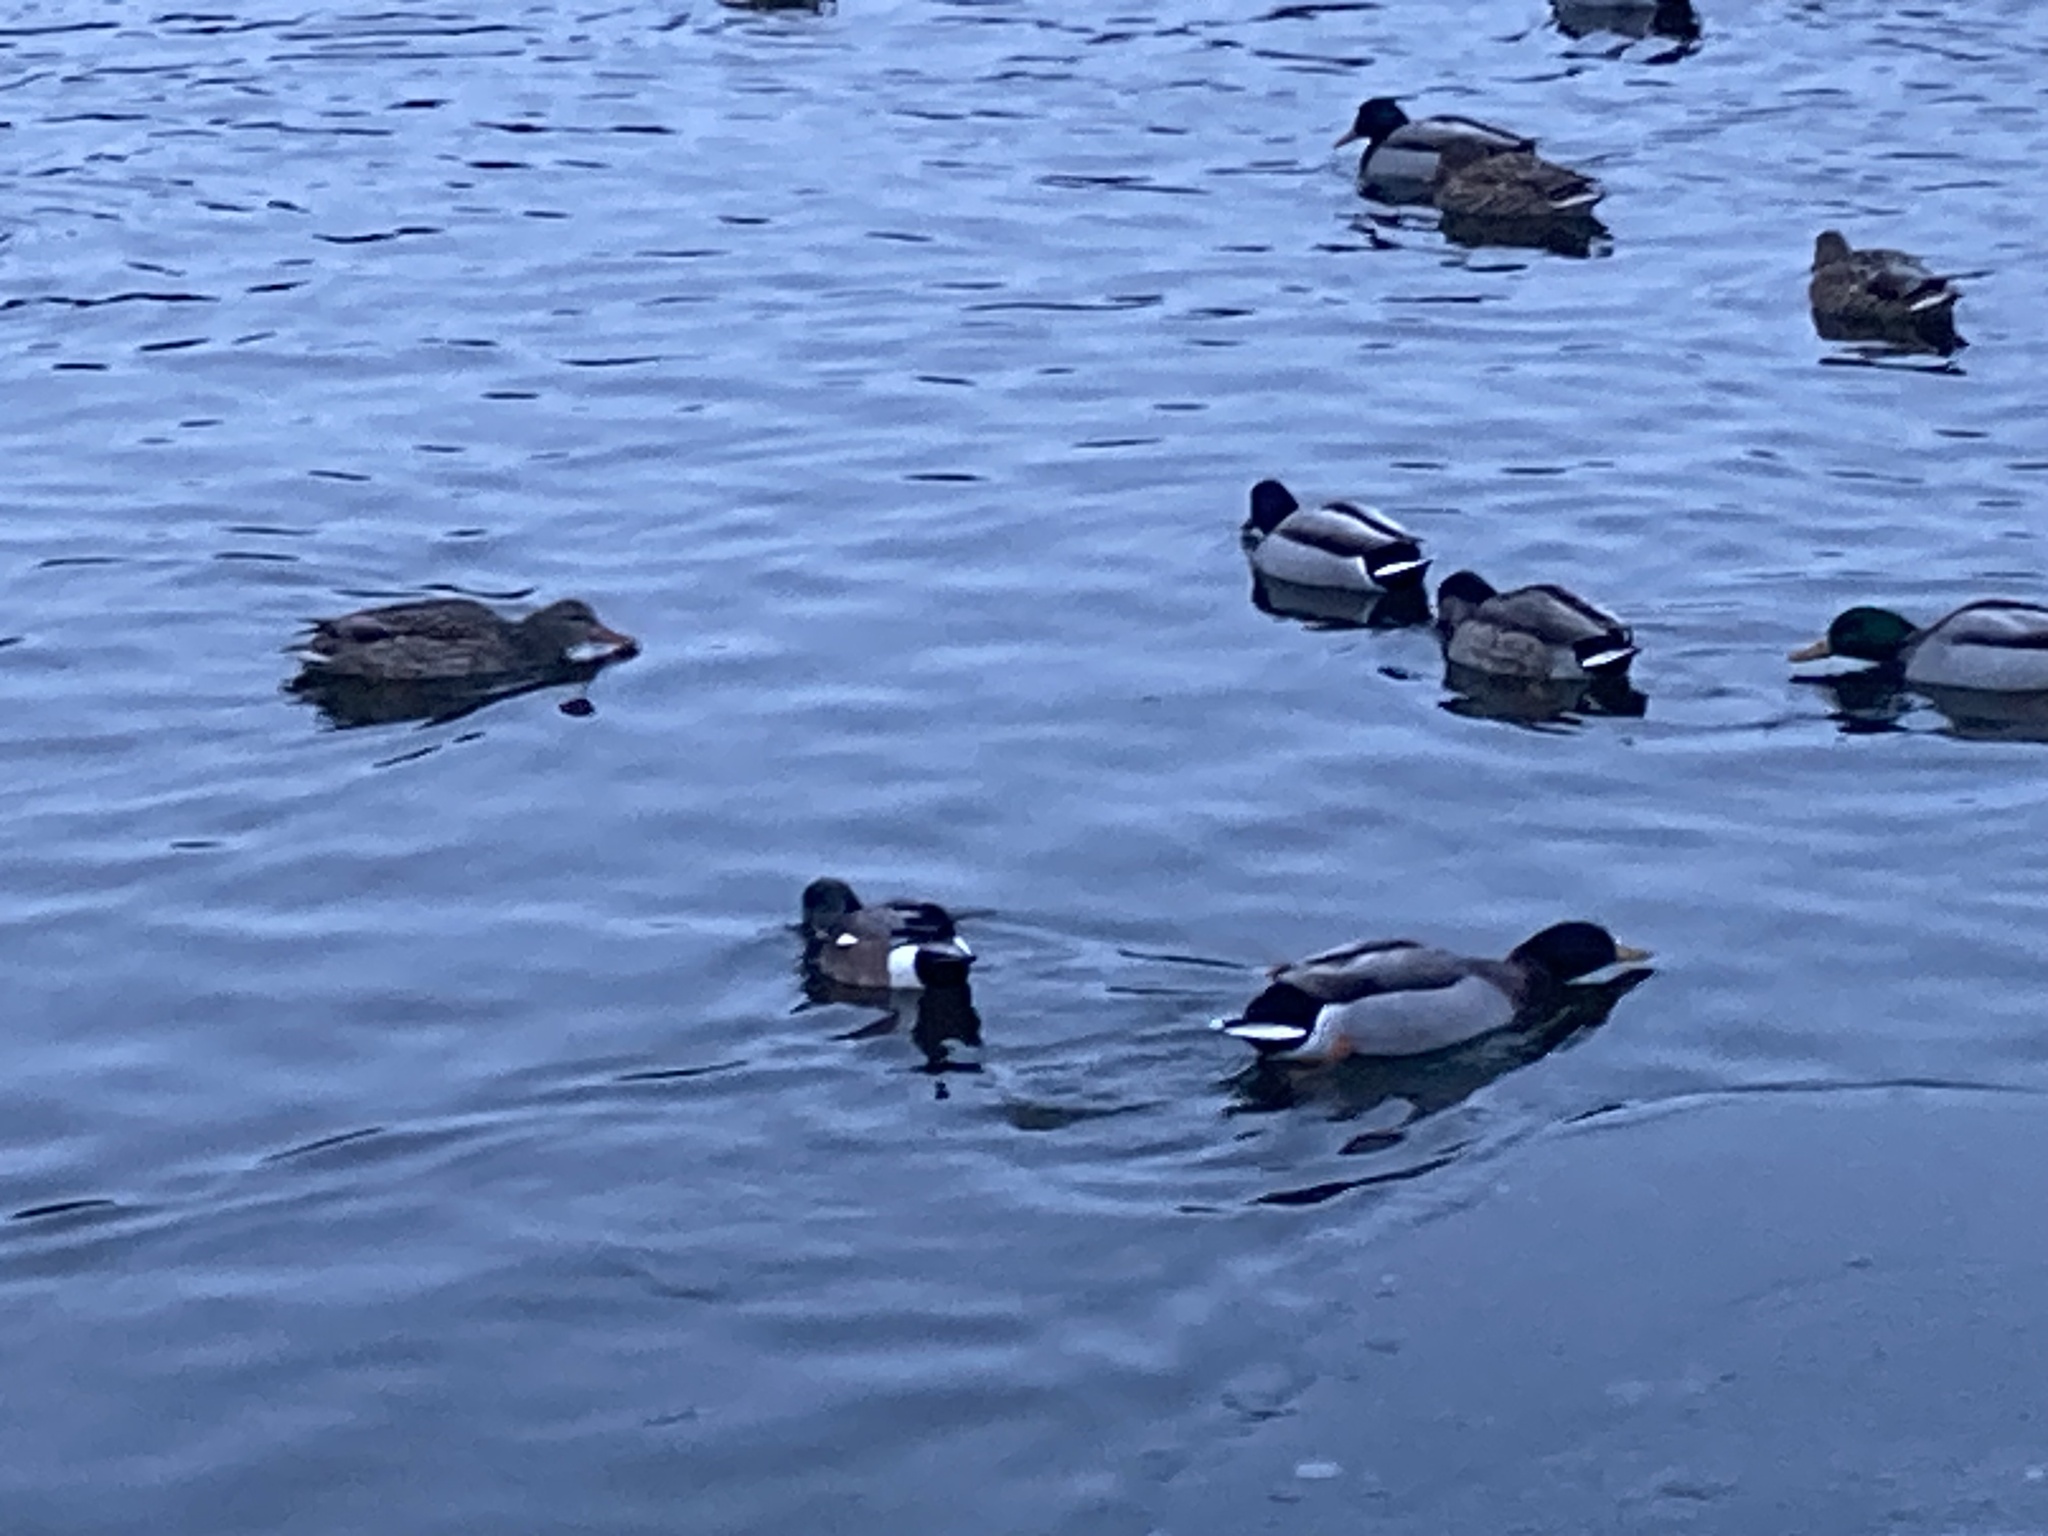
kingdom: Animalia
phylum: Chordata
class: Aves
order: Anseriformes
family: Anatidae
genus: Mareca
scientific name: Mareca americana
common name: American wigeon
